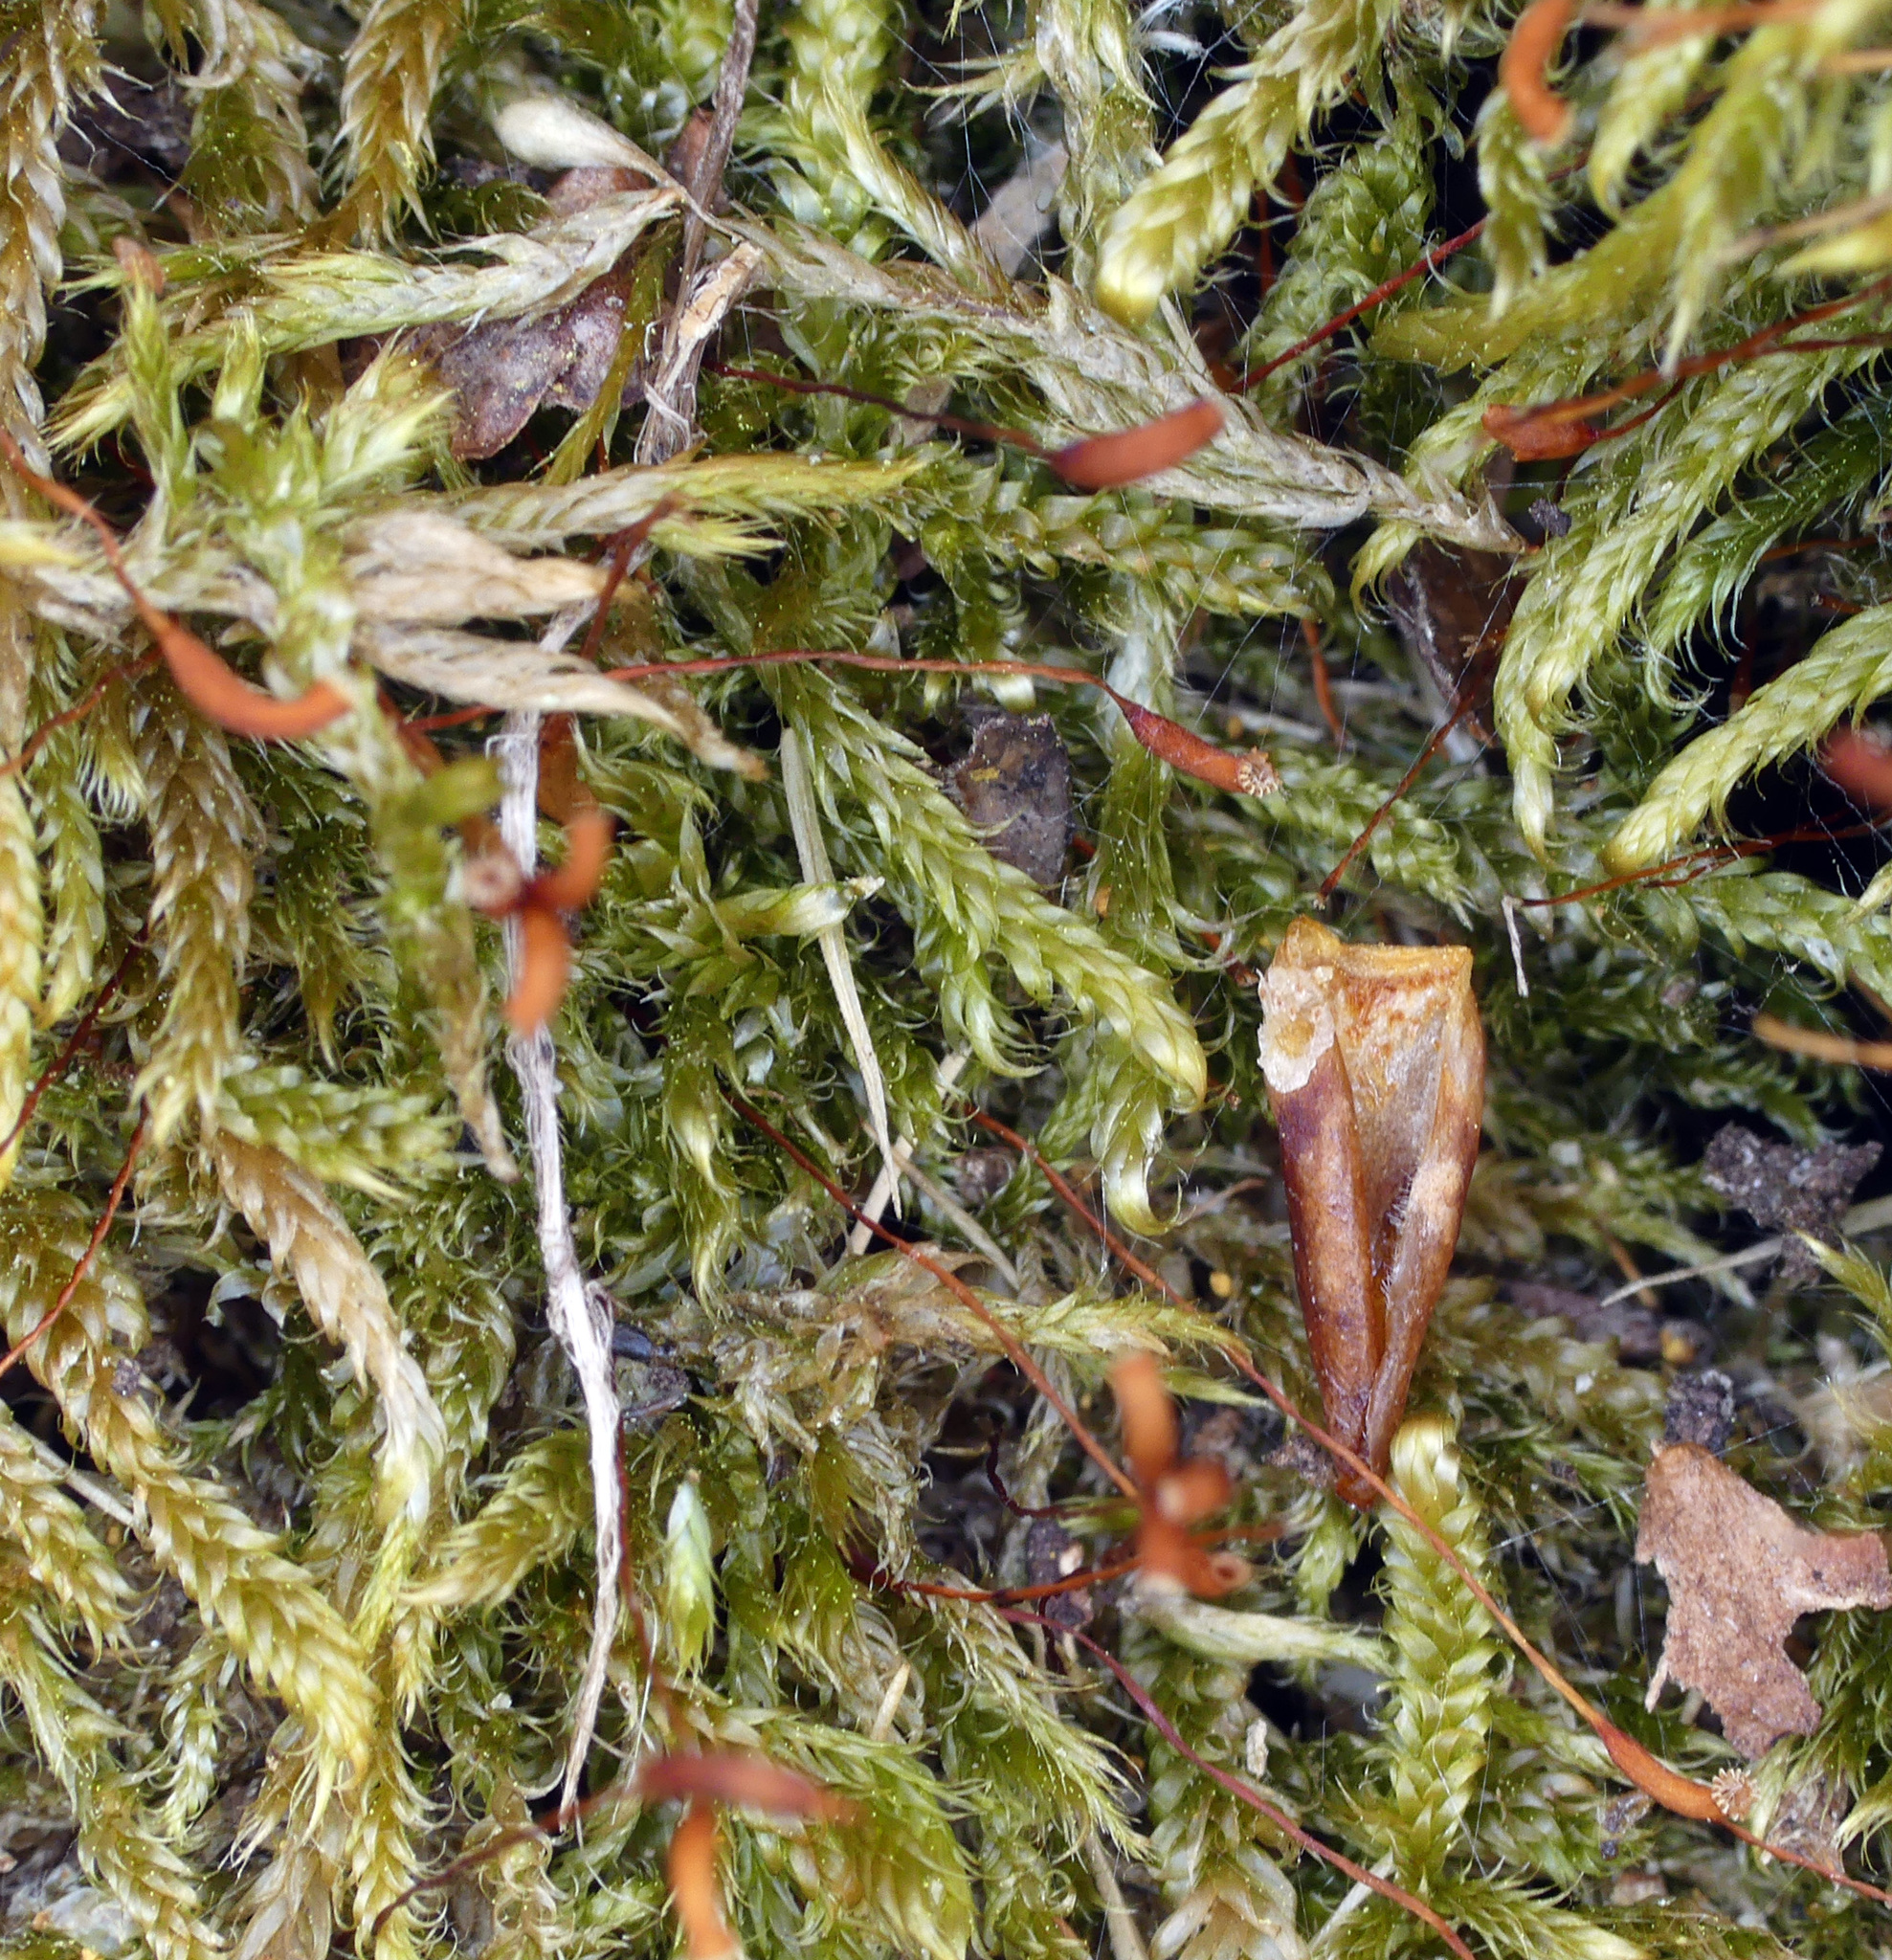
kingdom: Plantae
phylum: Bryophyta
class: Bryopsida
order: Hypnales
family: Hypnaceae
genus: Hypnum
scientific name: Hypnum cupressiforme
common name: Cypress-leaved plait-moss
